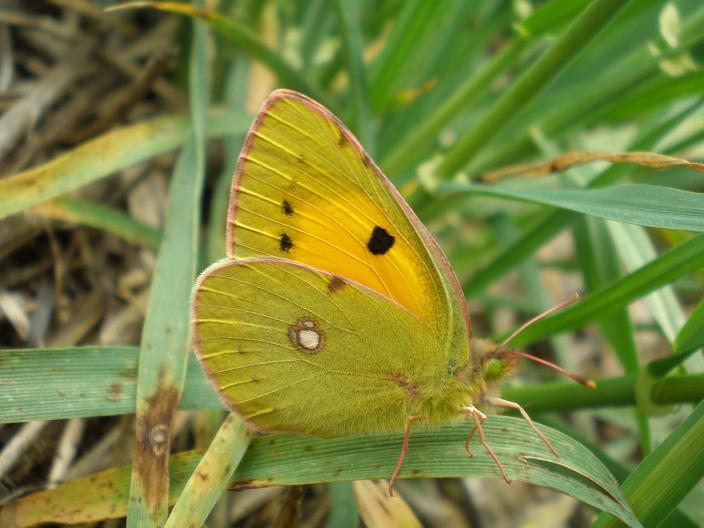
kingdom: Animalia
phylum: Arthropoda
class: Insecta
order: Lepidoptera
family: Pieridae
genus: Colias
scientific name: Colias croceus
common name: Clouded yellow
